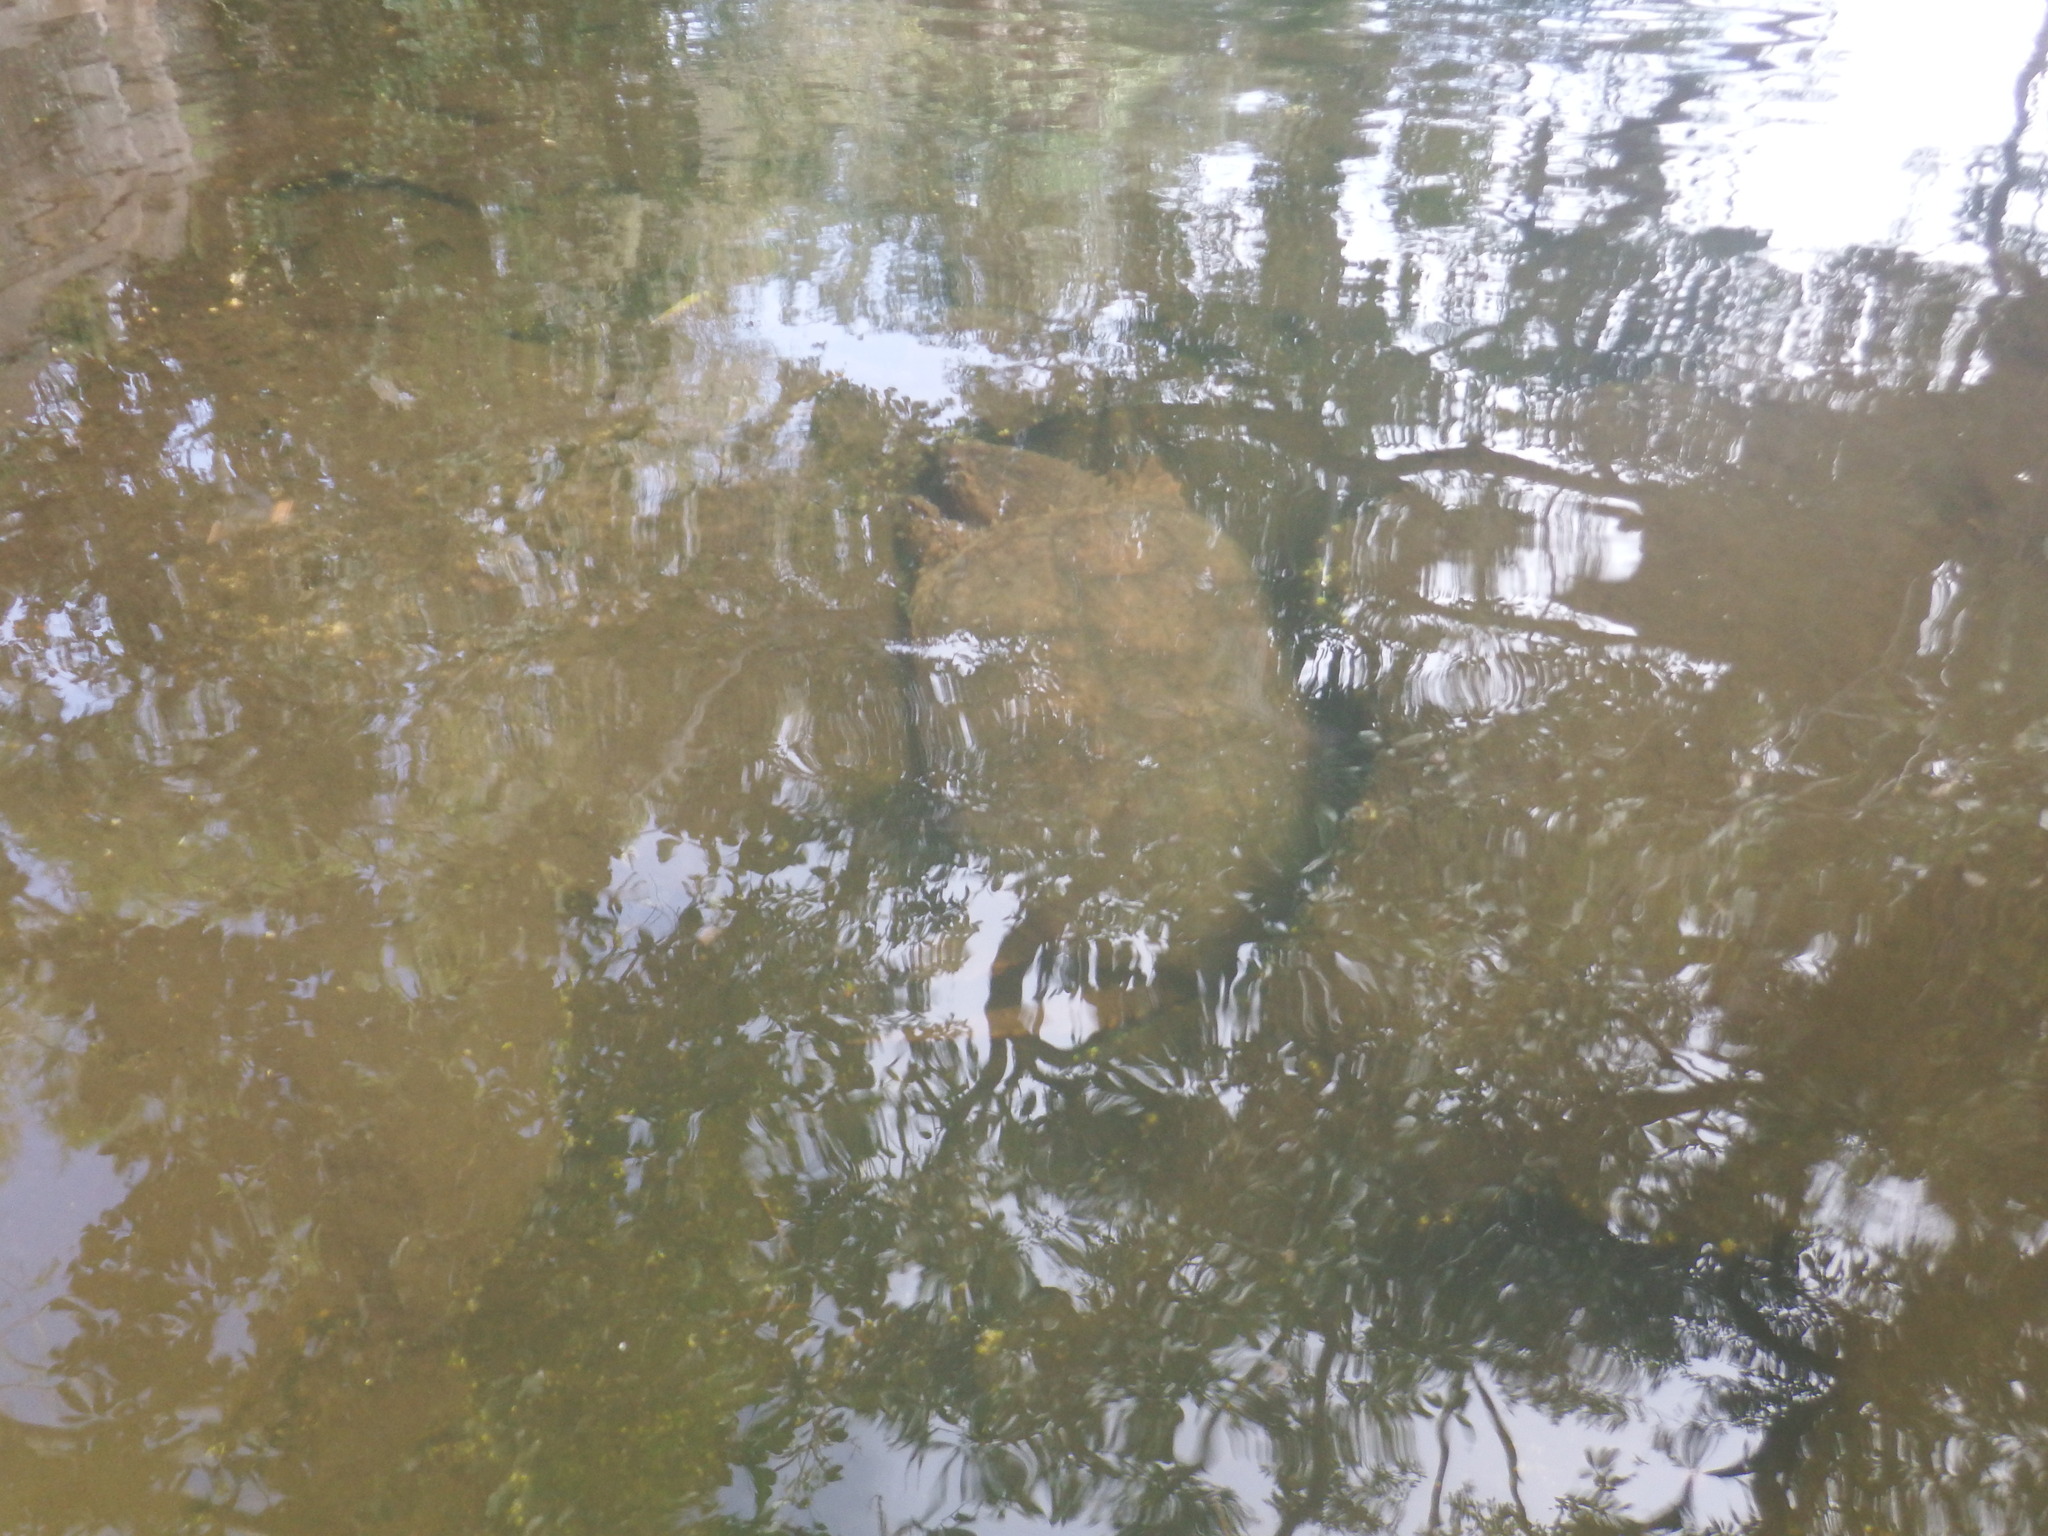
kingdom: Animalia
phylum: Chordata
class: Testudines
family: Chelydridae
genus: Chelydra
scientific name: Chelydra serpentina
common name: Common snapping turtle
